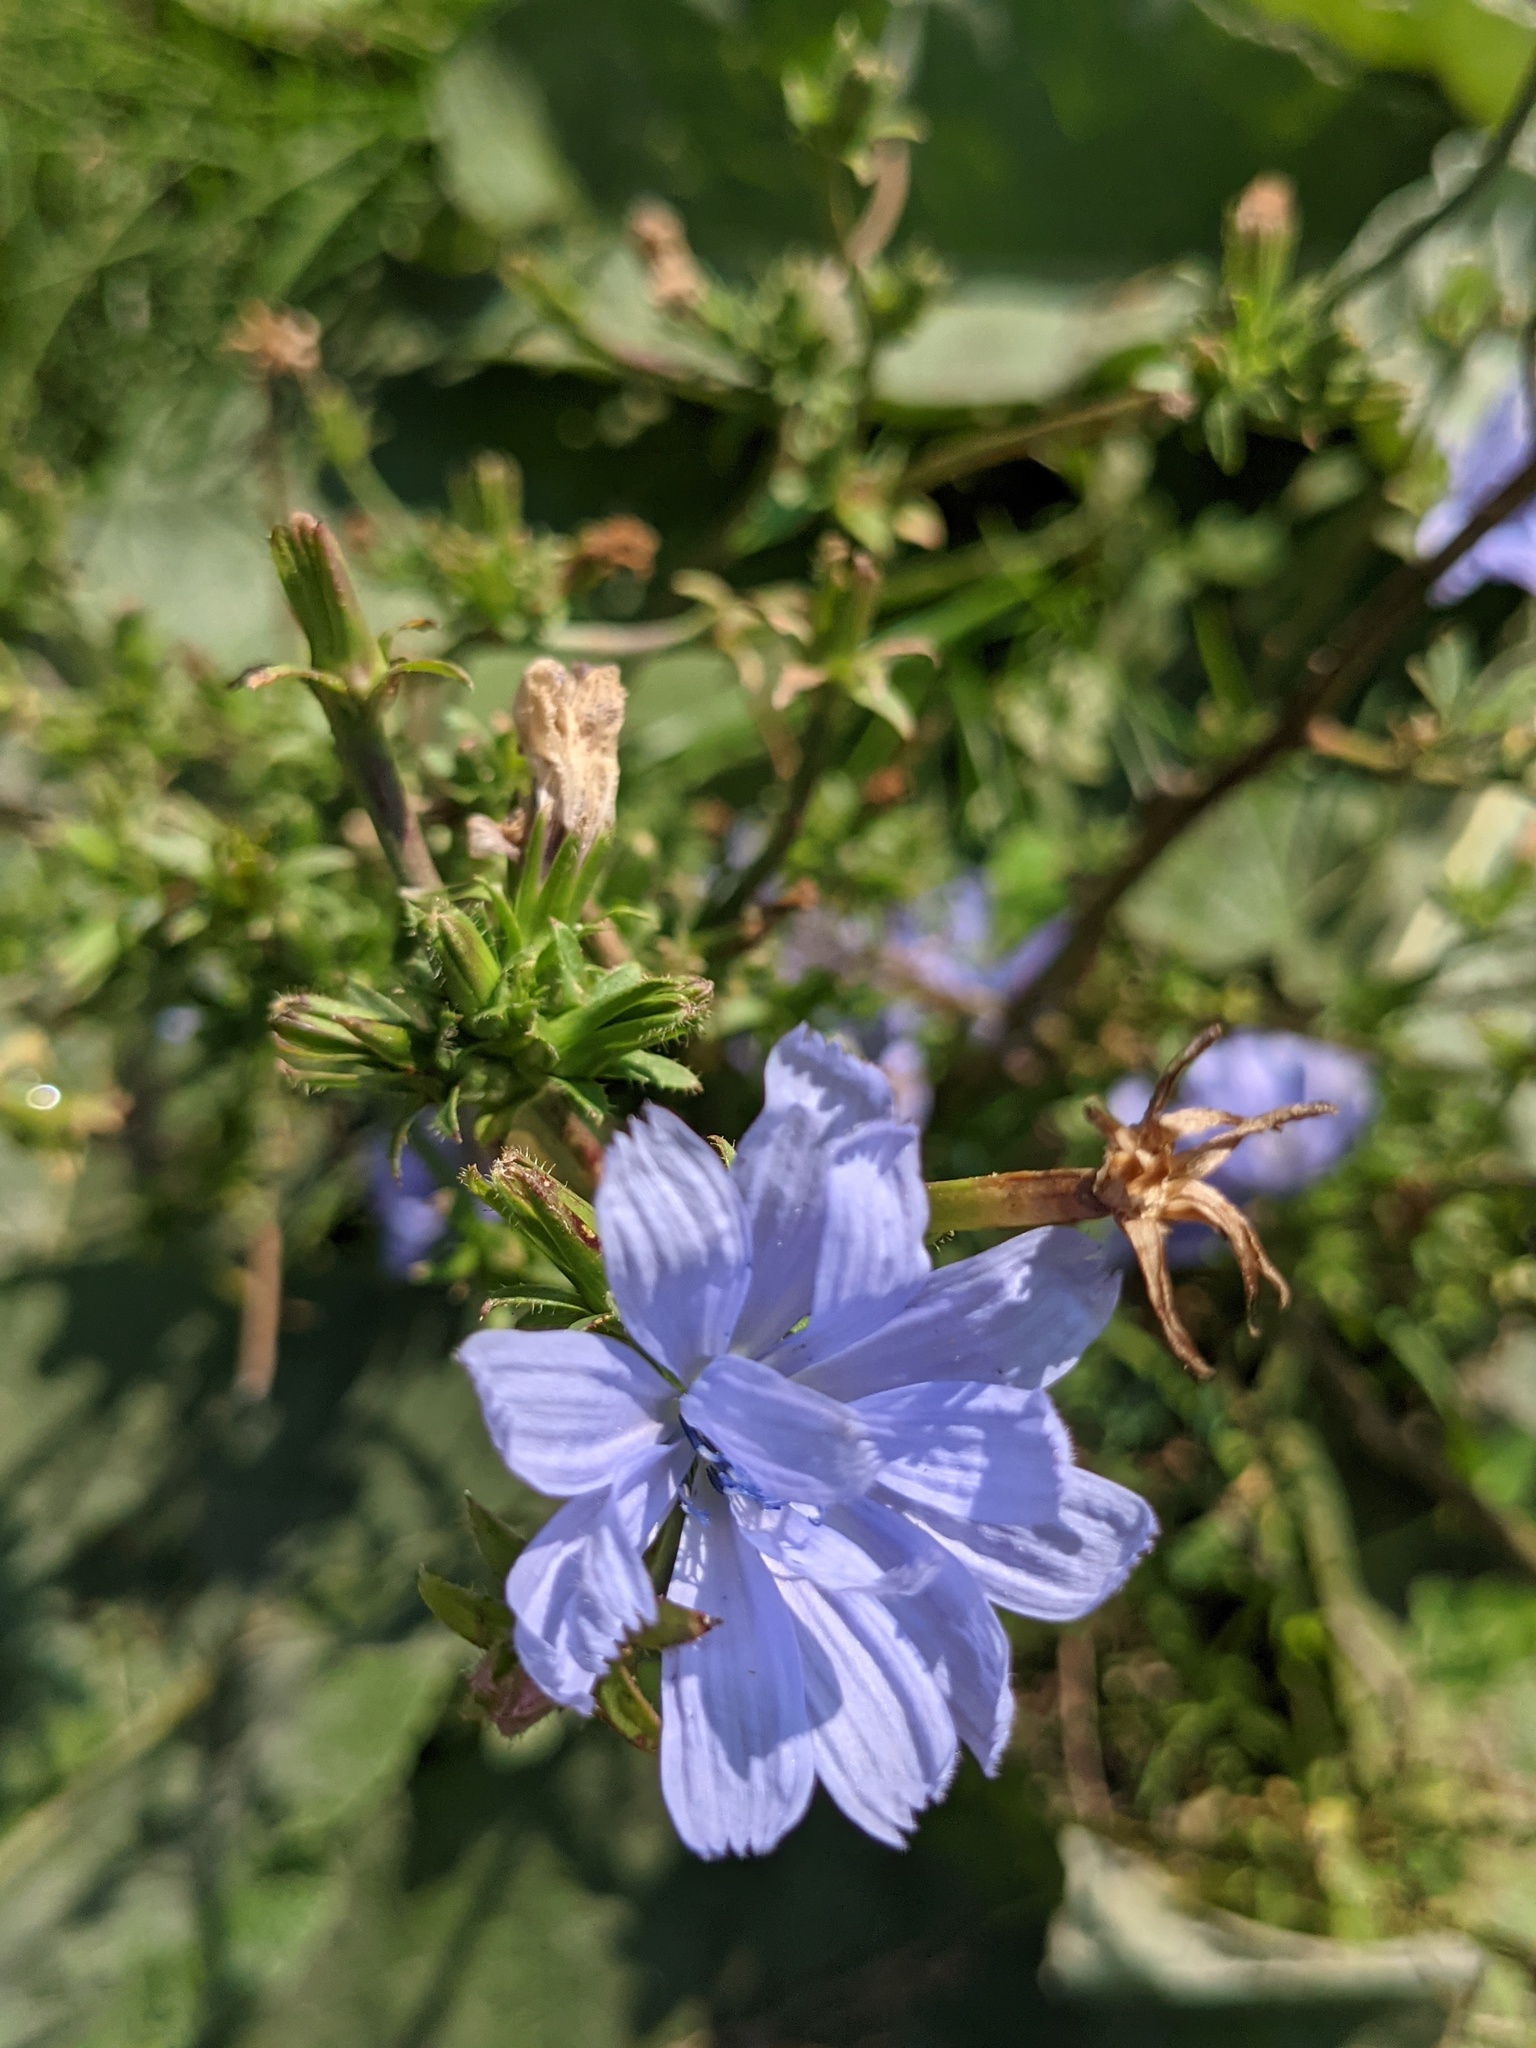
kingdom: Plantae
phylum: Tracheophyta
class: Magnoliopsida
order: Asterales
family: Asteraceae
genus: Cichorium
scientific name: Cichorium intybus
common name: Chicory
